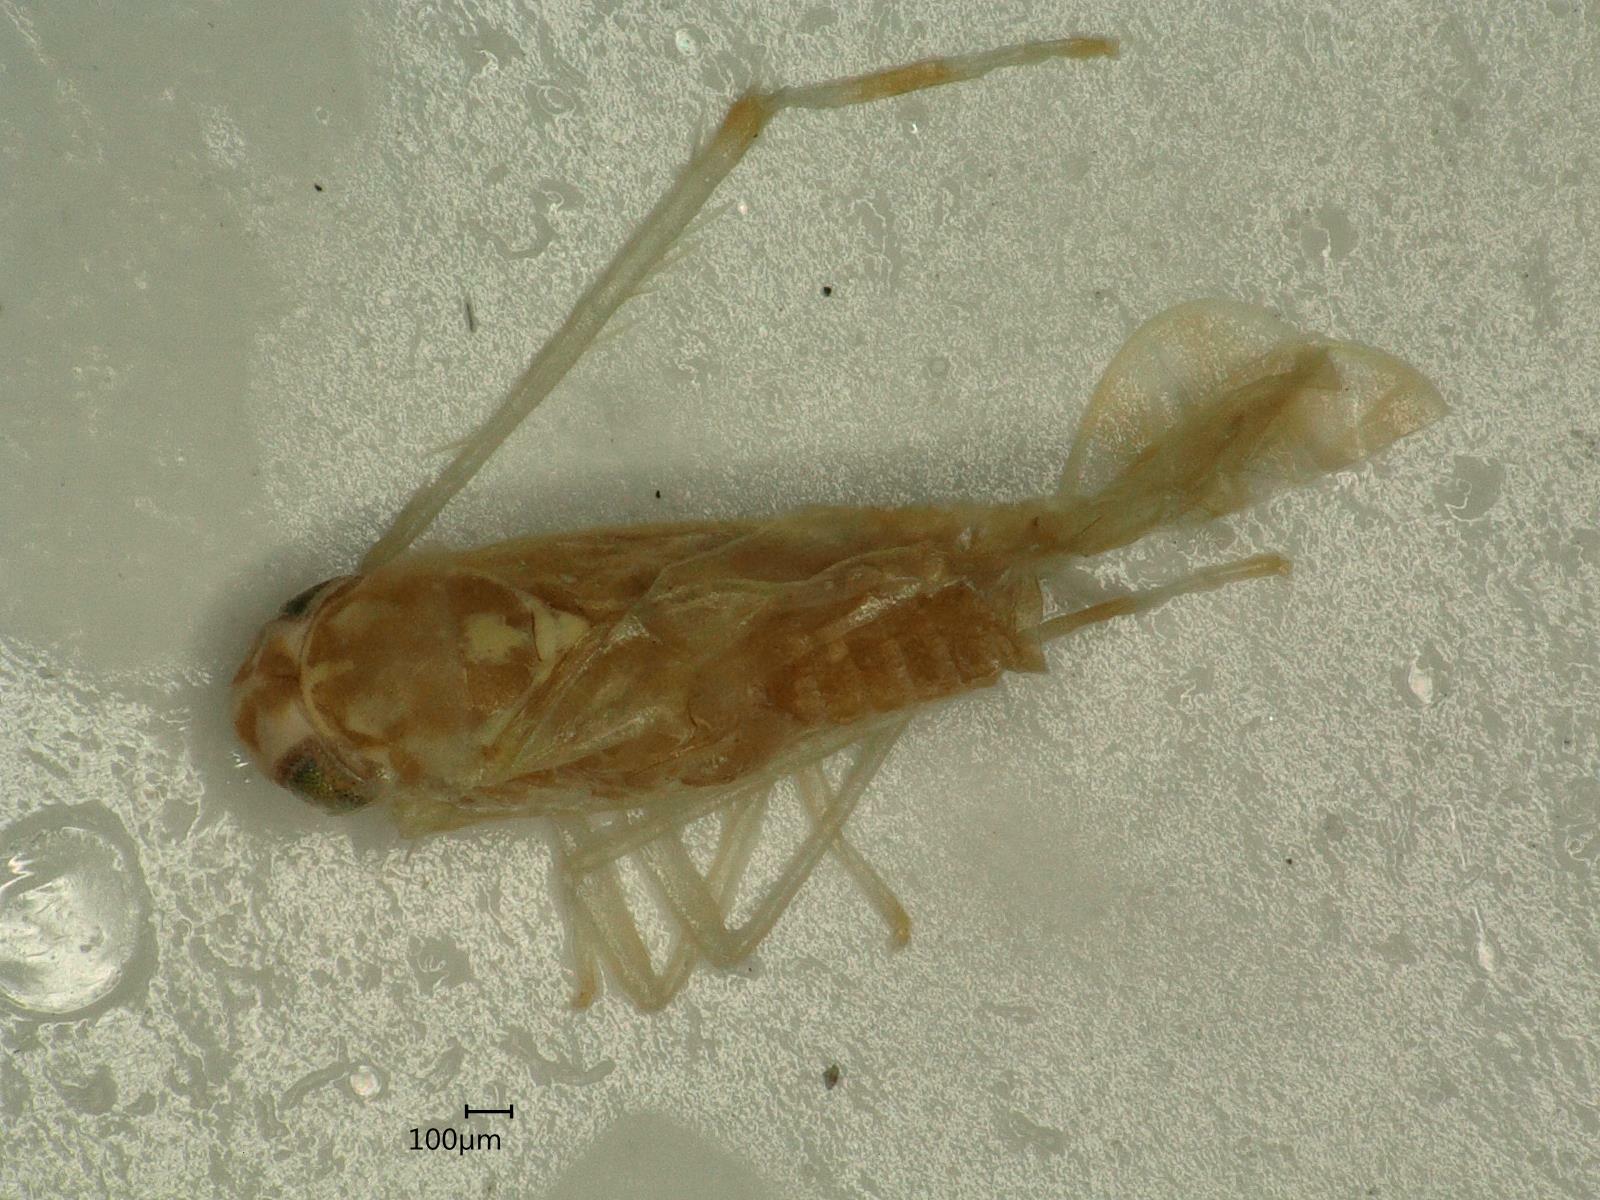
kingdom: Animalia
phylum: Arthropoda
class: Insecta
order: Hemiptera
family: Cicadellidae
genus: Eupteryx
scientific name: Eupteryx florida
